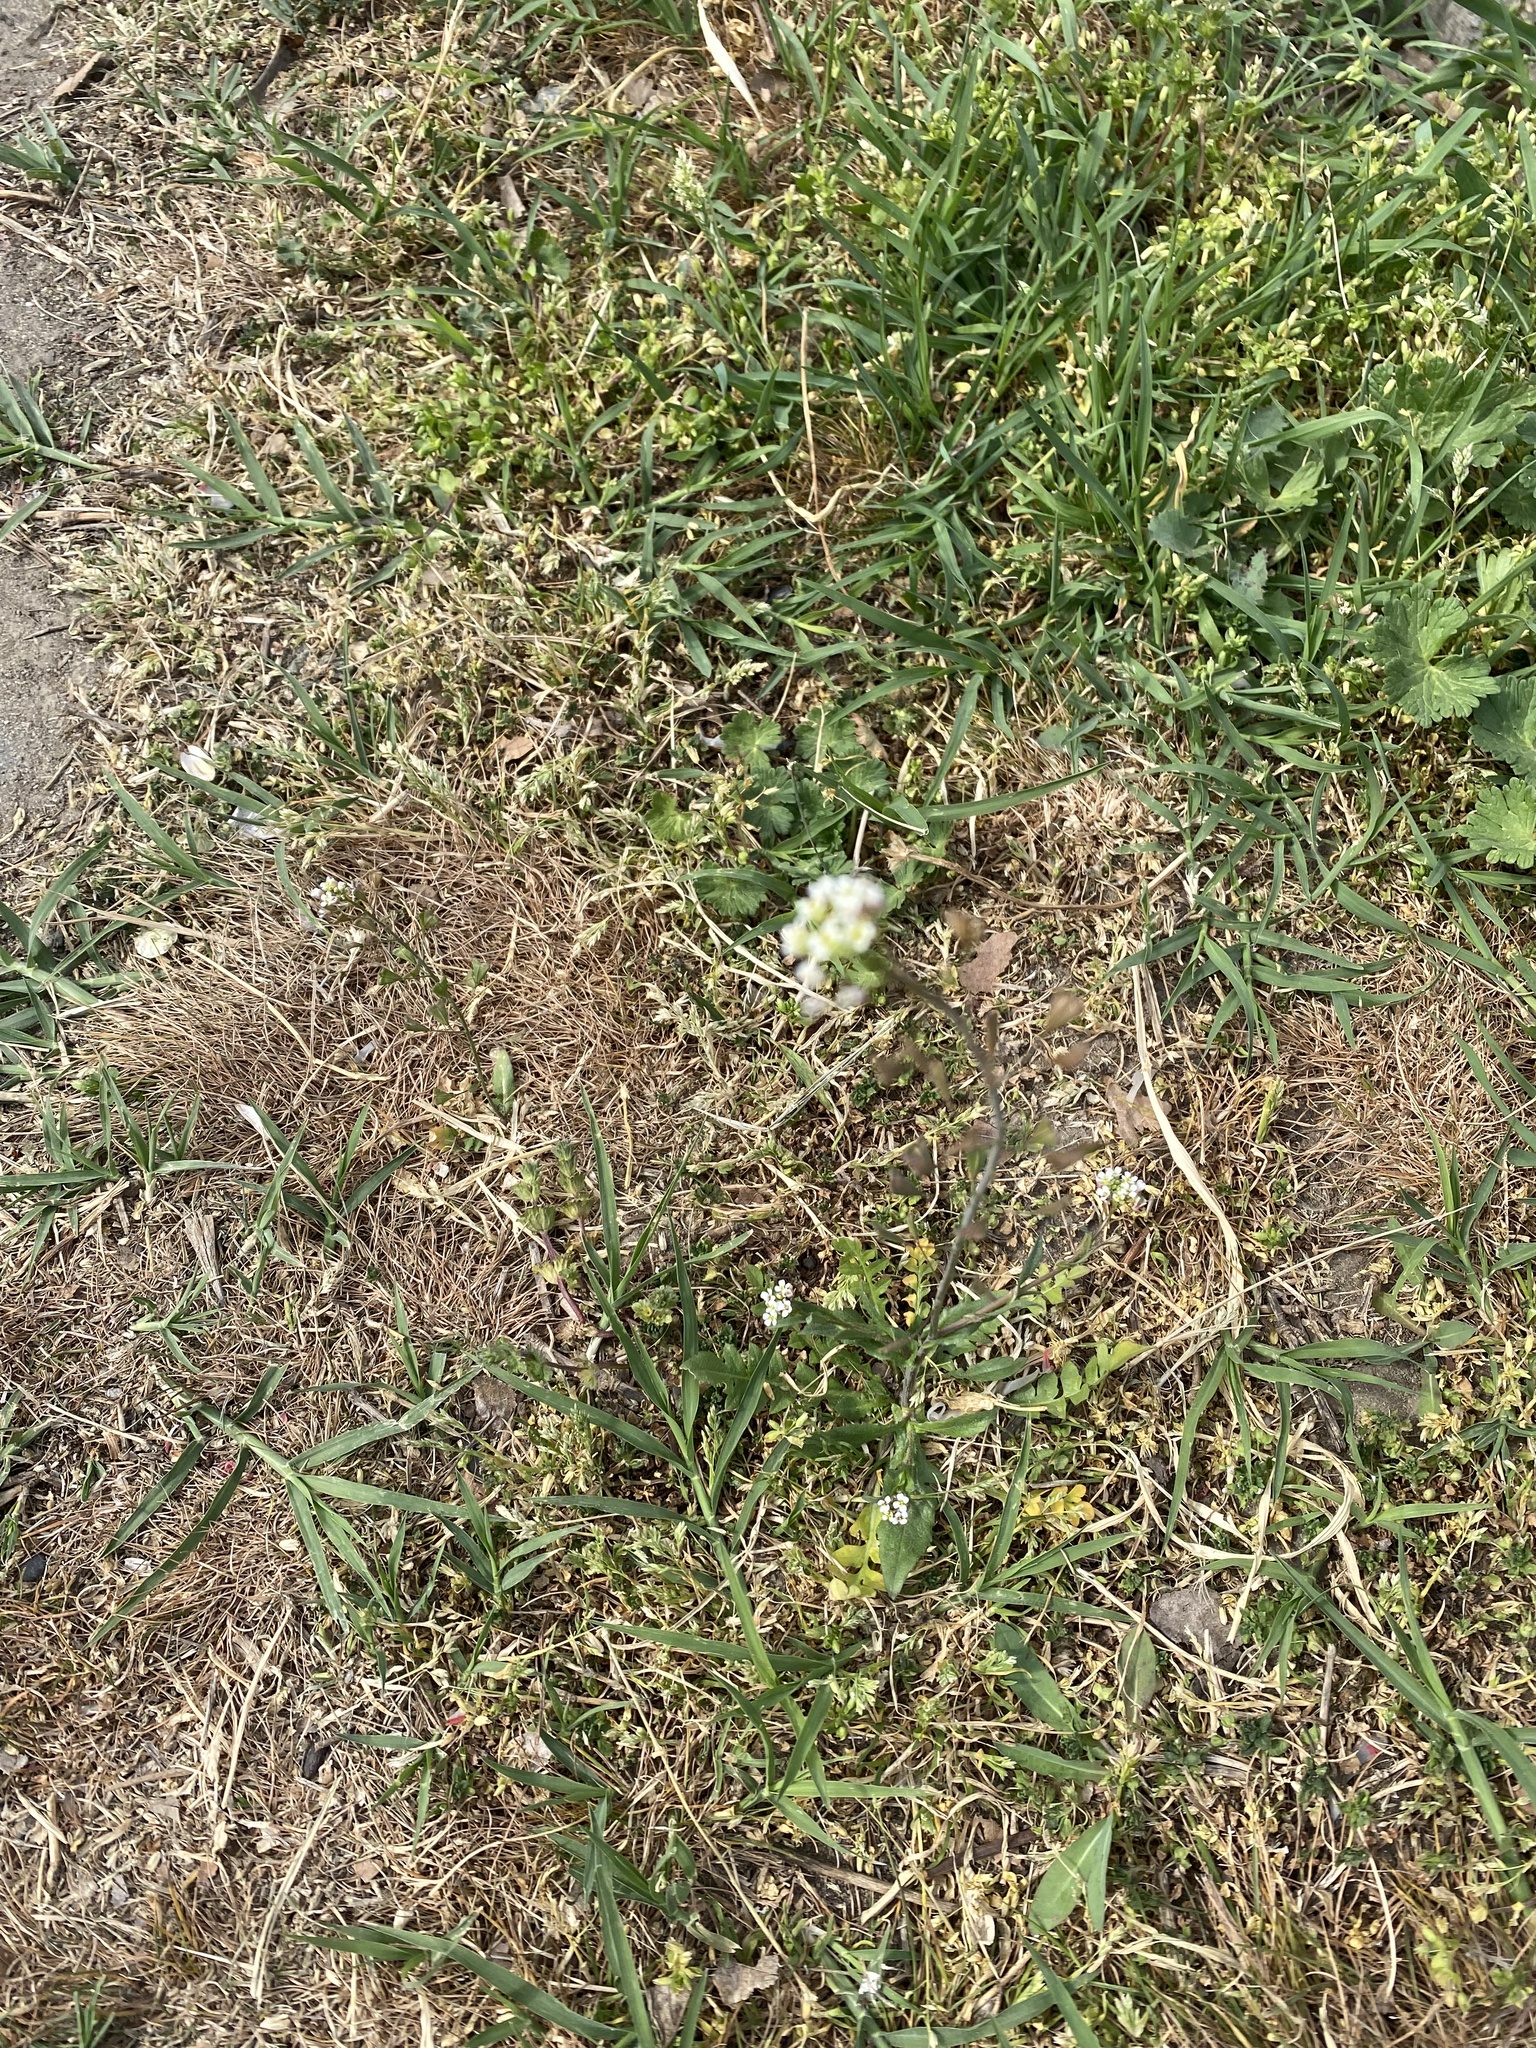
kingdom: Plantae
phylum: Tracheophyta
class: Magnoliopsida
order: Brassicales
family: Brassicaceae
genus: Capsella
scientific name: Capsella bursa-pastoris
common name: Shepherd's purse
